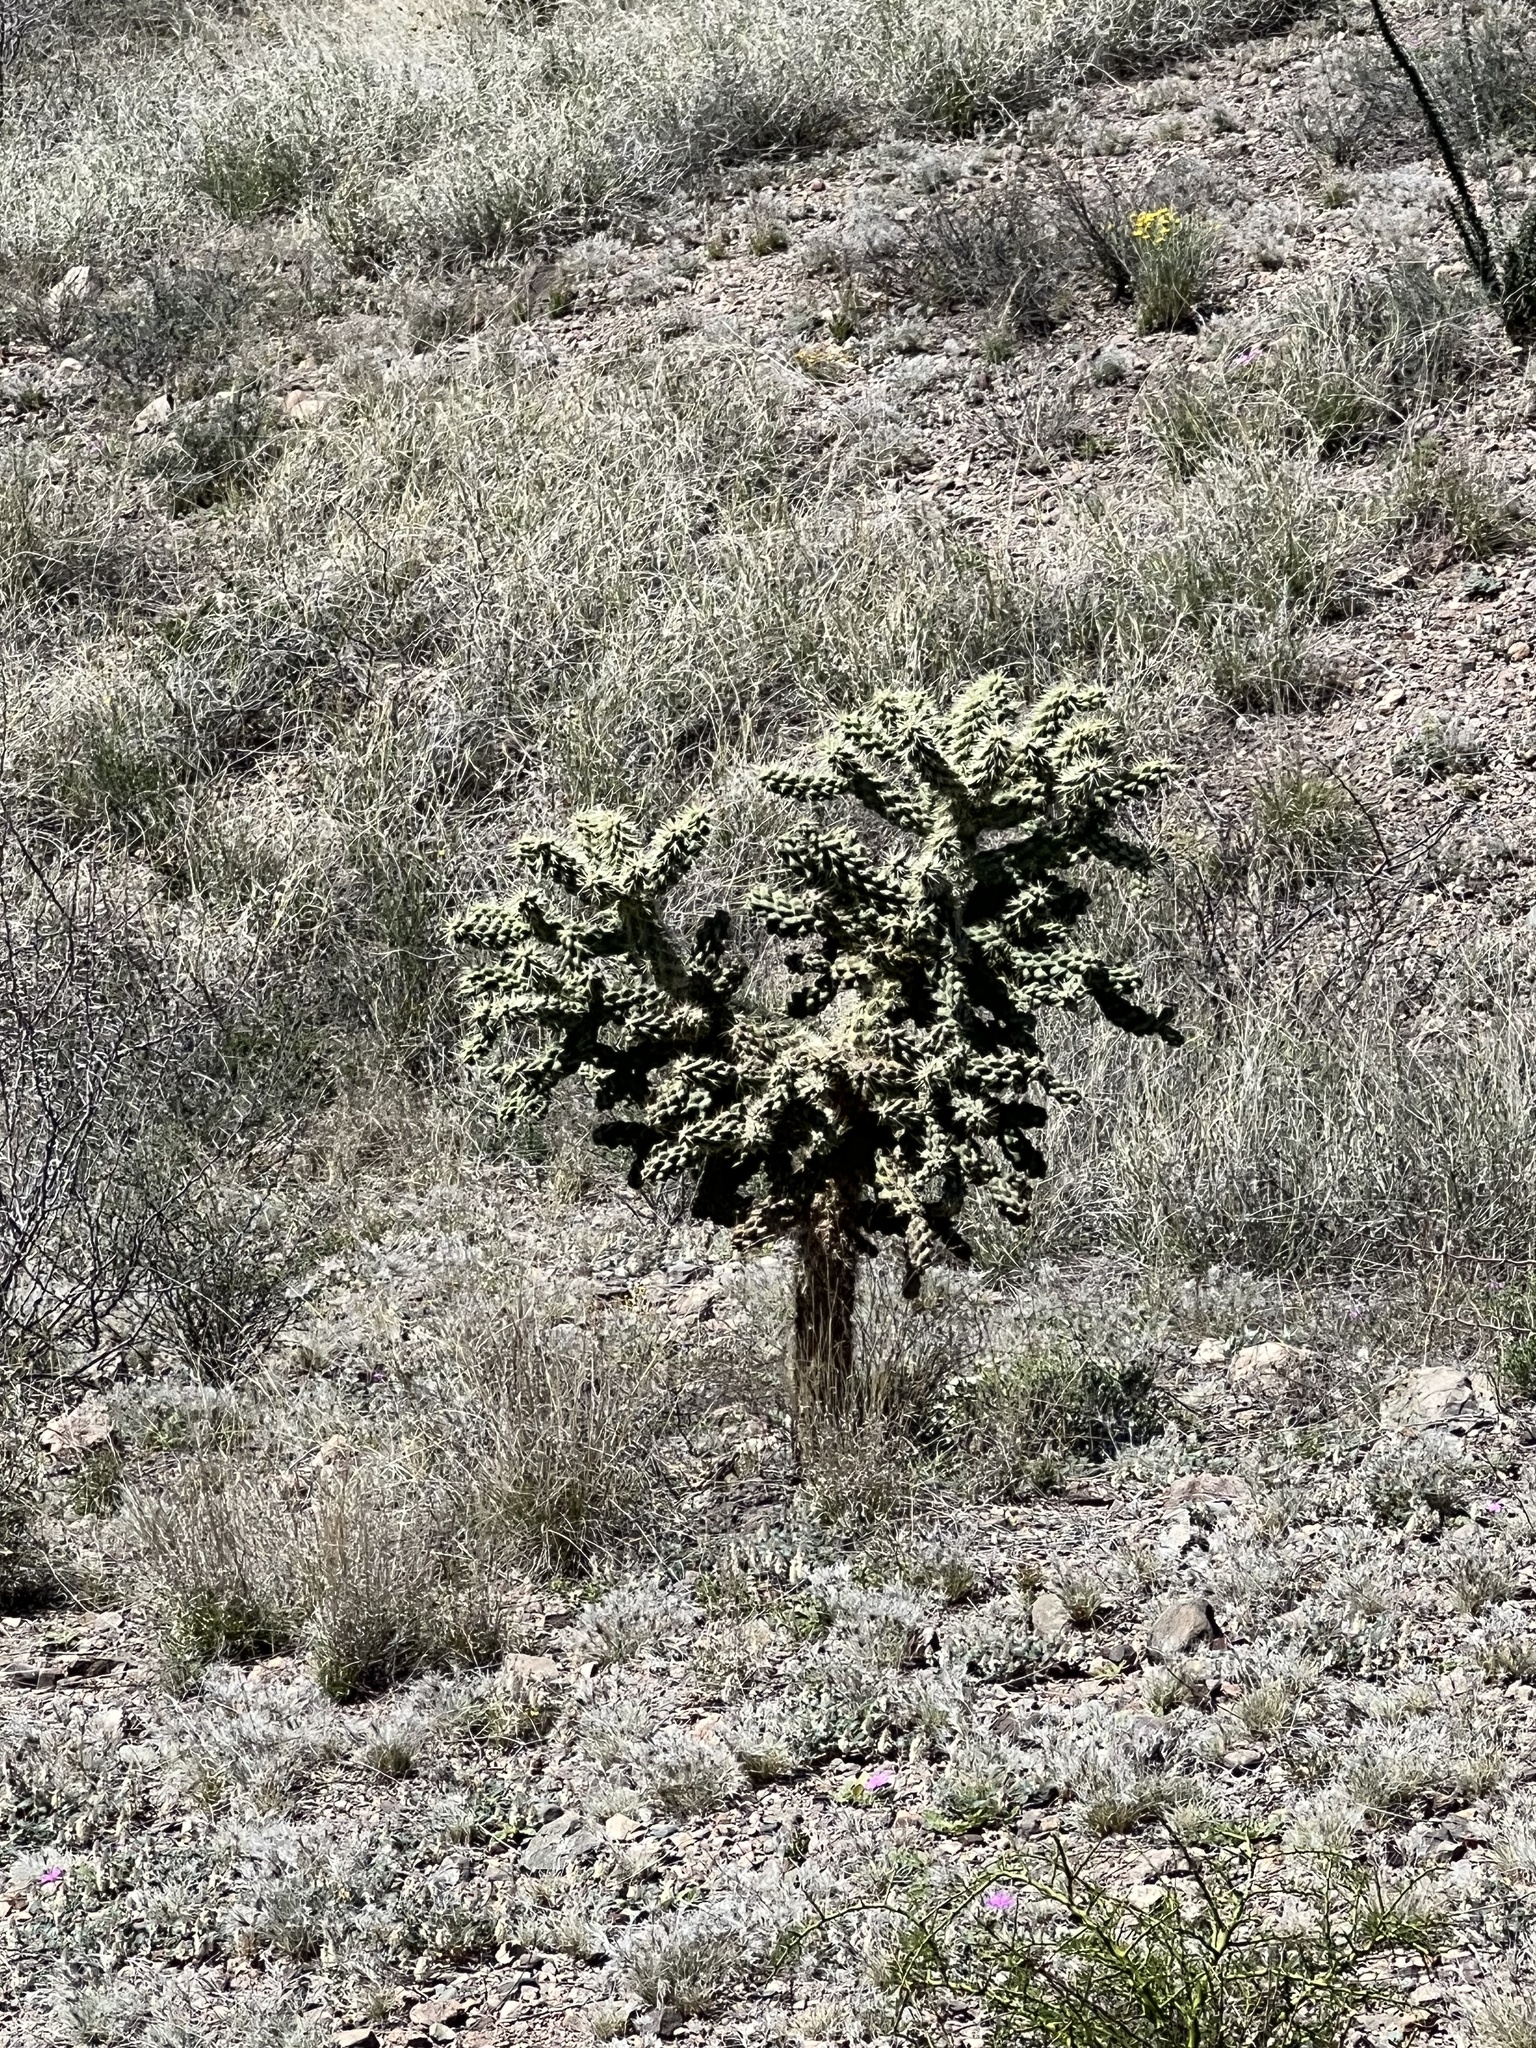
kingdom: Plantae
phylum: Tracheophyta
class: Magnoliopsida
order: Caryophyllales
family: Cactaceae
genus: Cylindropuntia
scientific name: Cylindropuntia fulgida
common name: Jumping cholla
